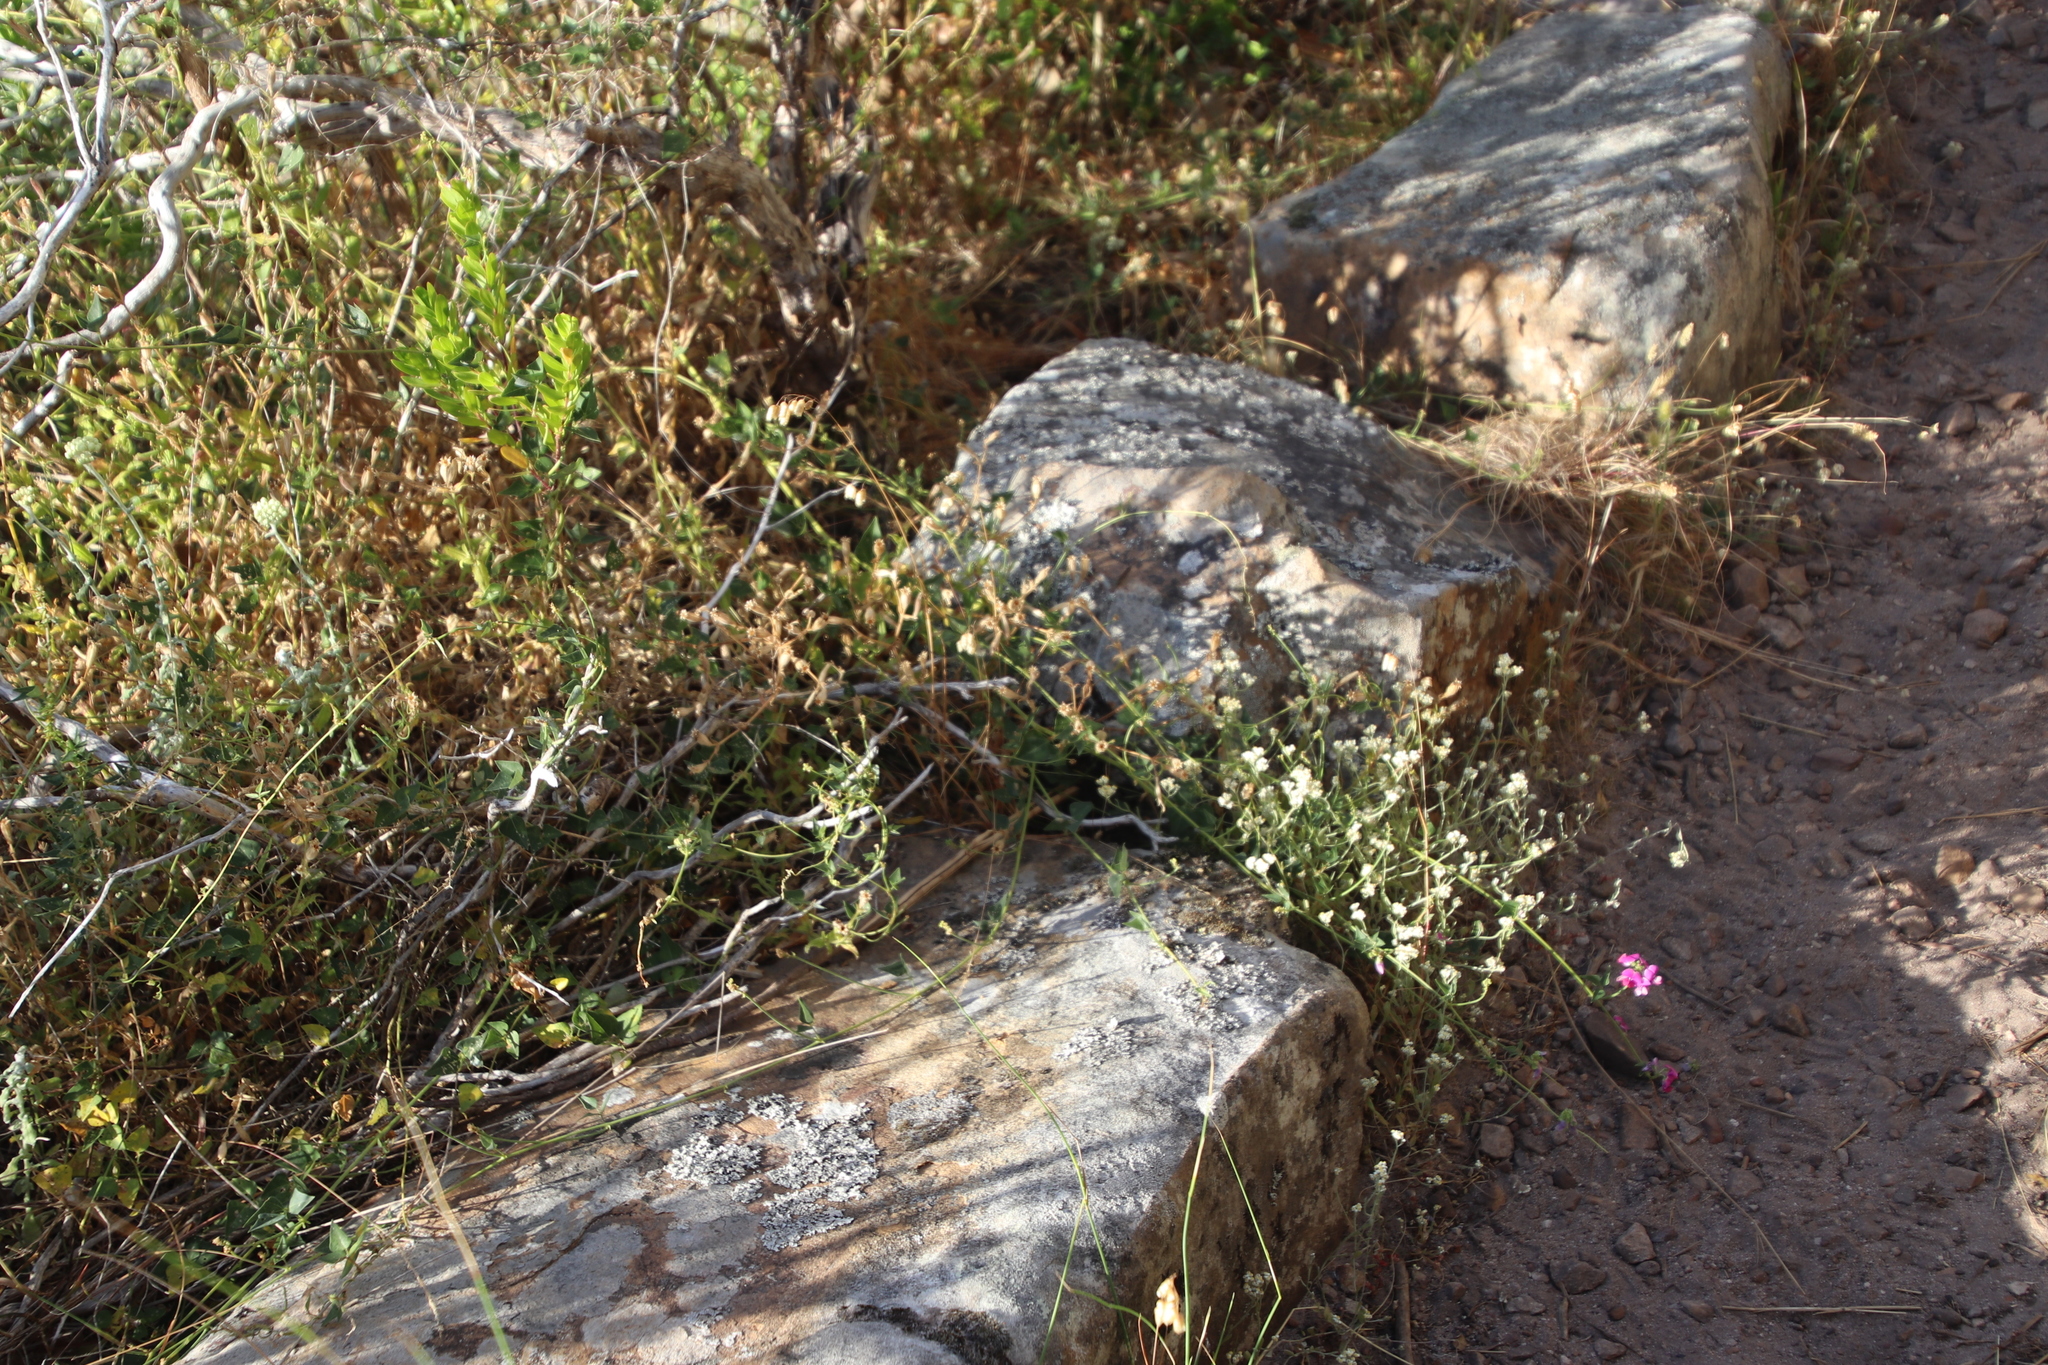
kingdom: Plantae
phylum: Tracheophyta
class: Magnoliopsida
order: Fabales
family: Fabaceae
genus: Dipogon
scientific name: Dipogon lignosus
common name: Okie bean
